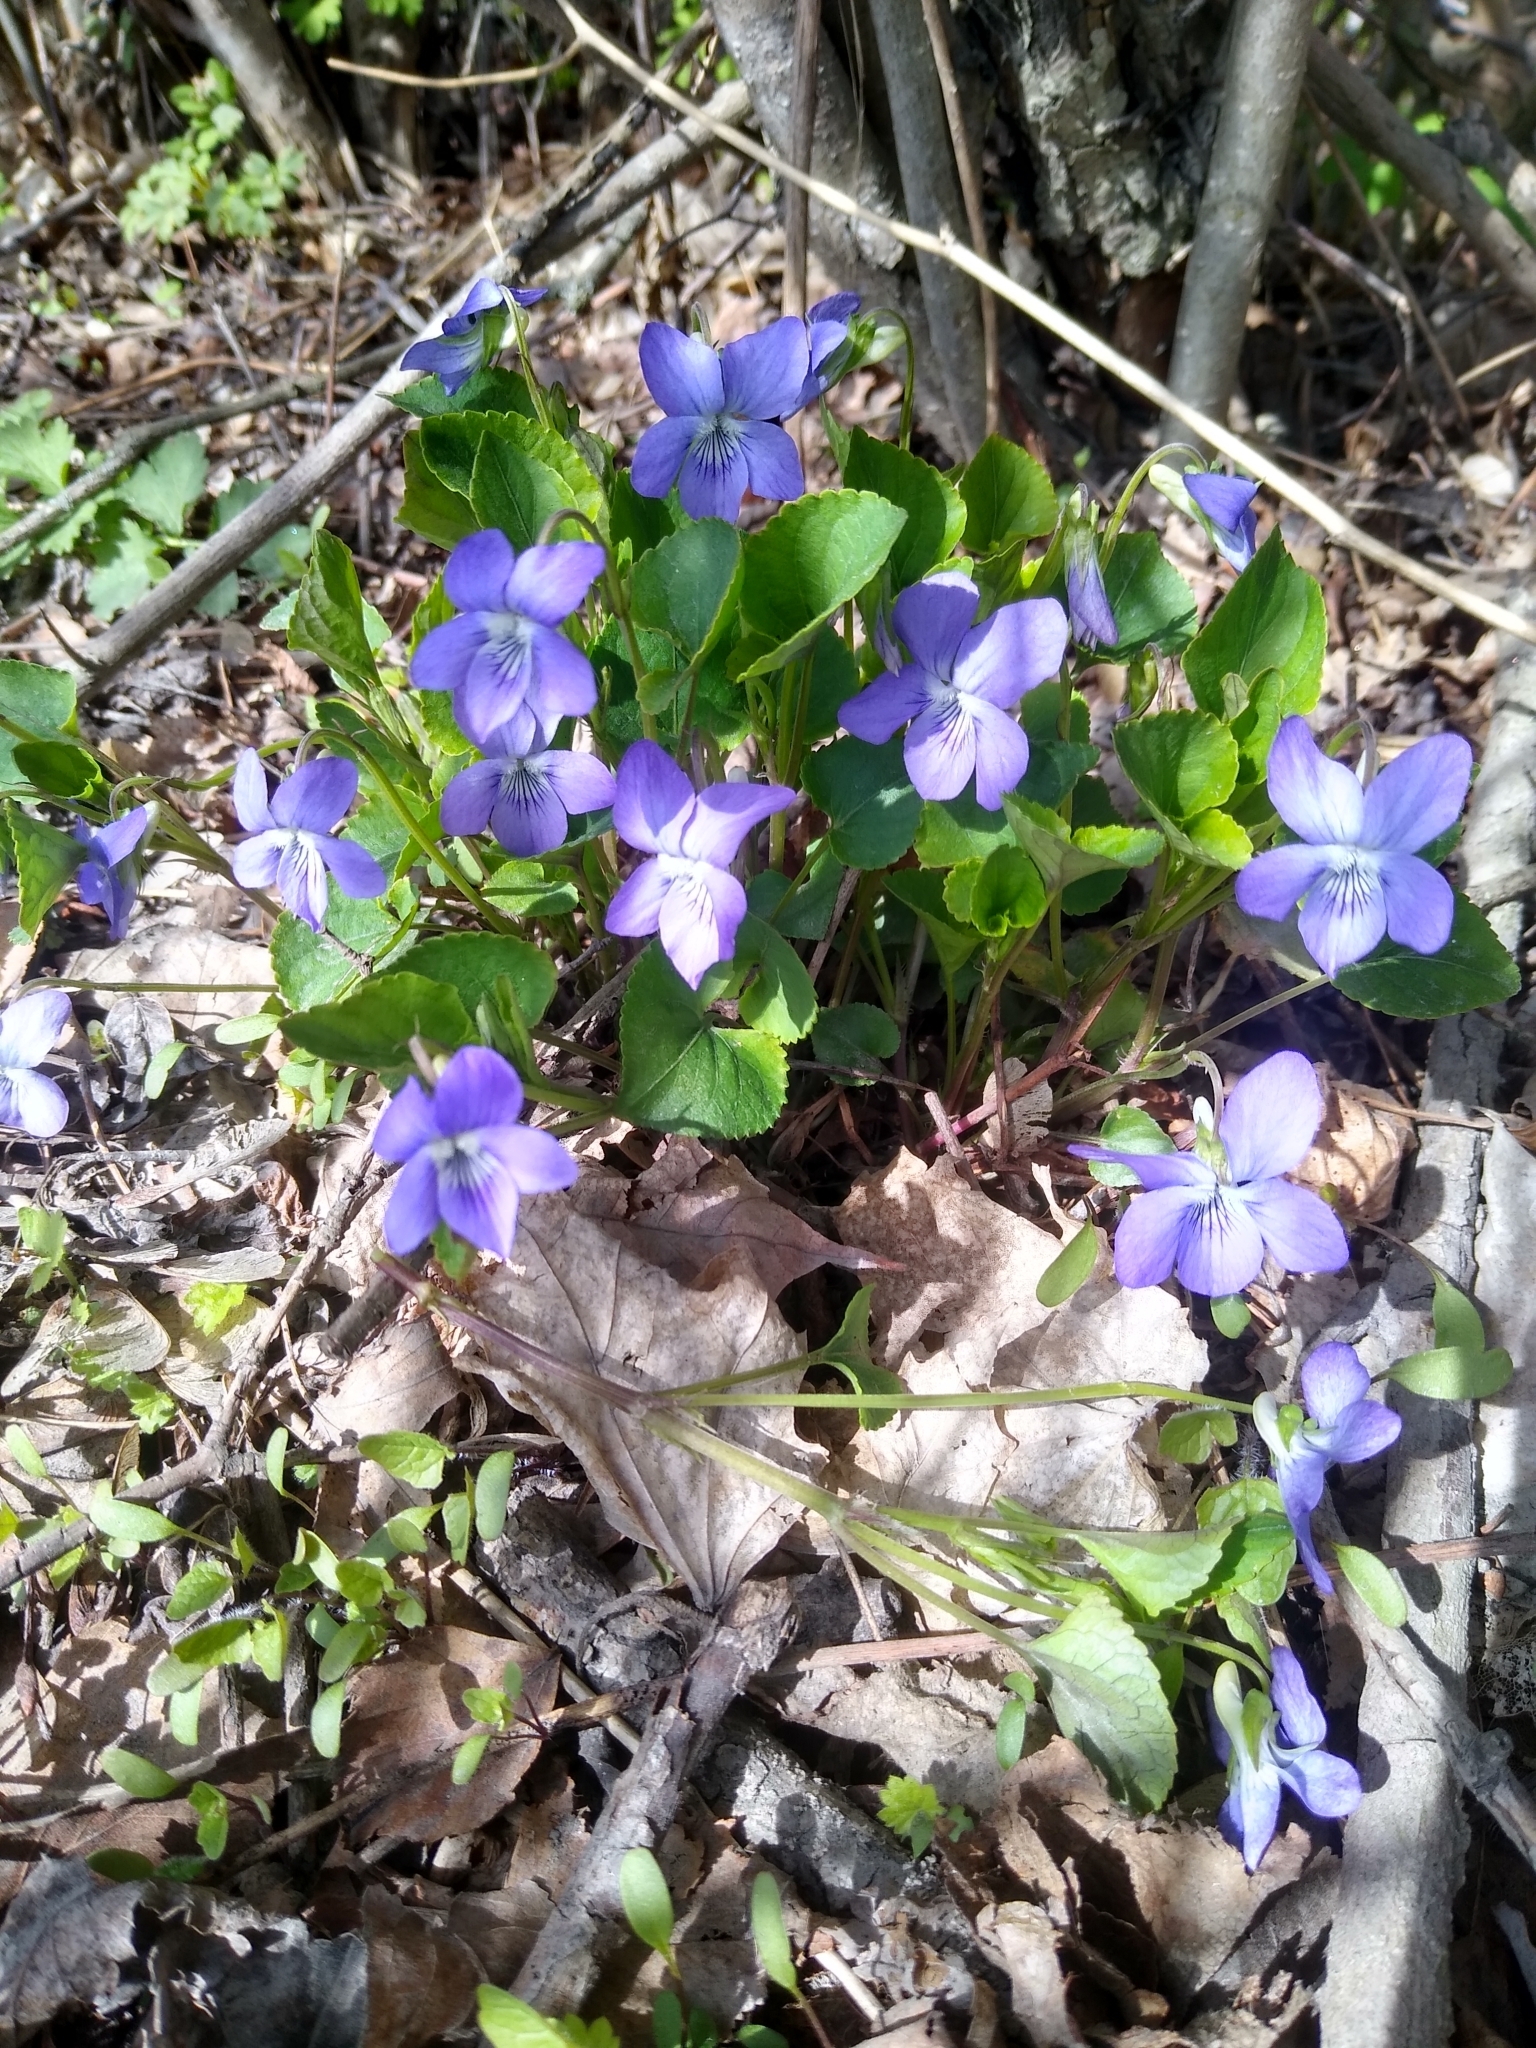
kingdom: Plantae
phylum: Tracheophyta
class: Magnoliopsida
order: Malpighiales
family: Violaceae
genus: Viola
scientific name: Viola riviniana
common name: Common dog-violet
